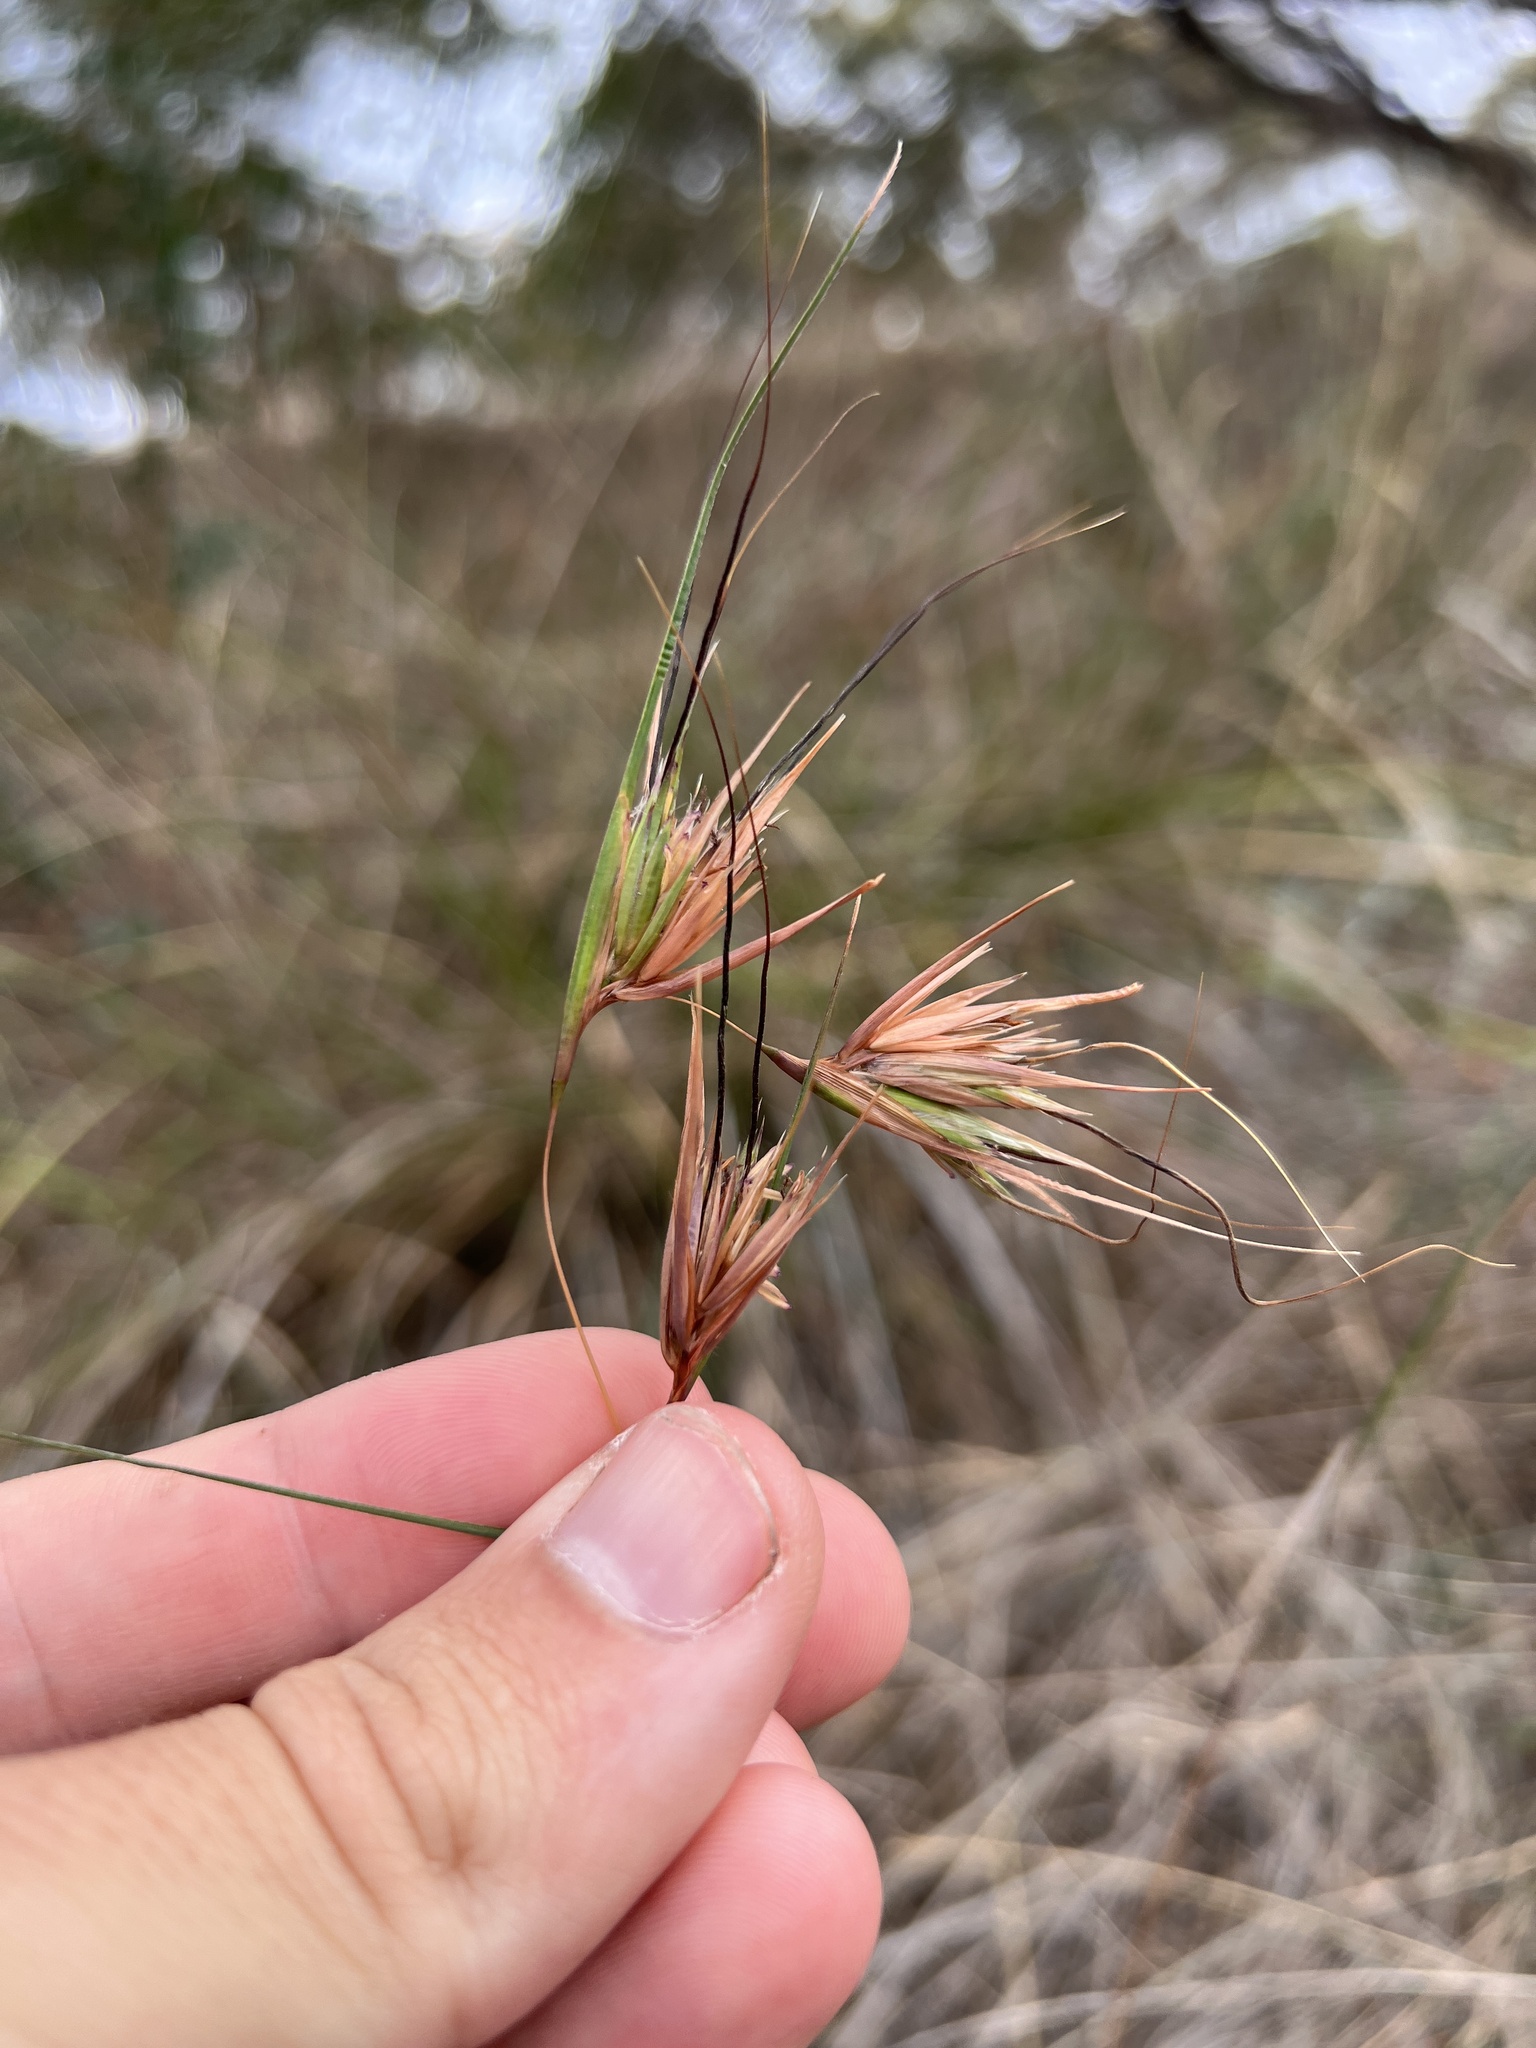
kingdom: Plantae
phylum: Tracheophyta
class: Liliopsida
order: Poales
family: Poaceae
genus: Themeda
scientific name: Themeda triandra
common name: Kangaroo grass
